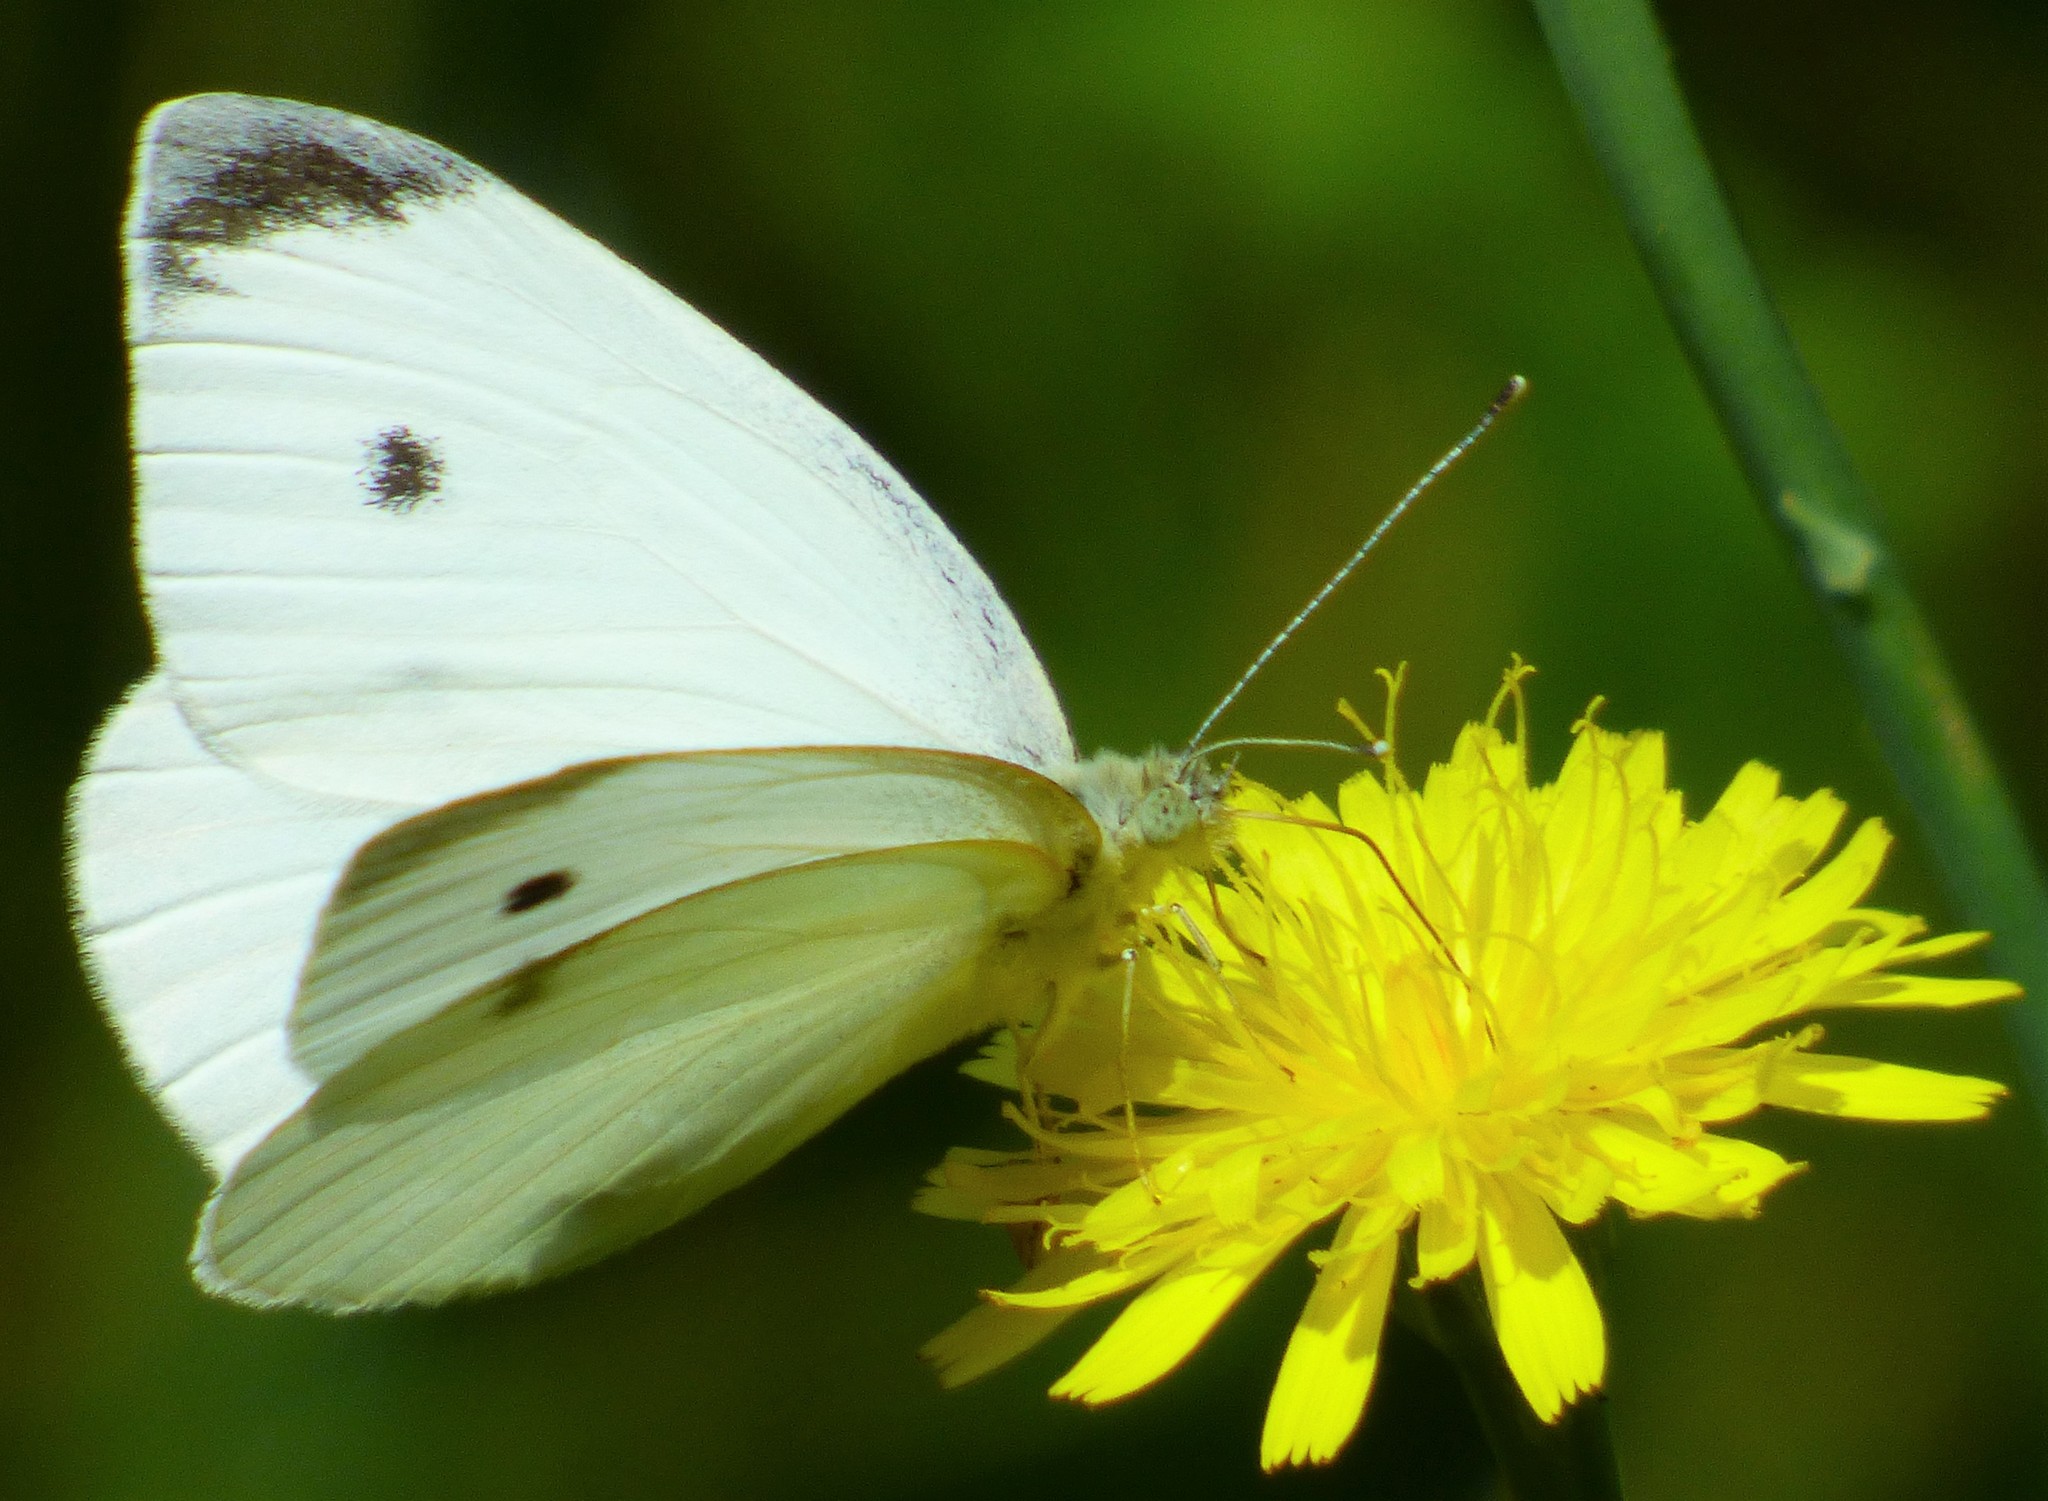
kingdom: Animalia
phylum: Arthropoda
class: Insecta
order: Lepidoptera
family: Pieridae
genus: Pieris
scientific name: Pieris rapae
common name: Small white
